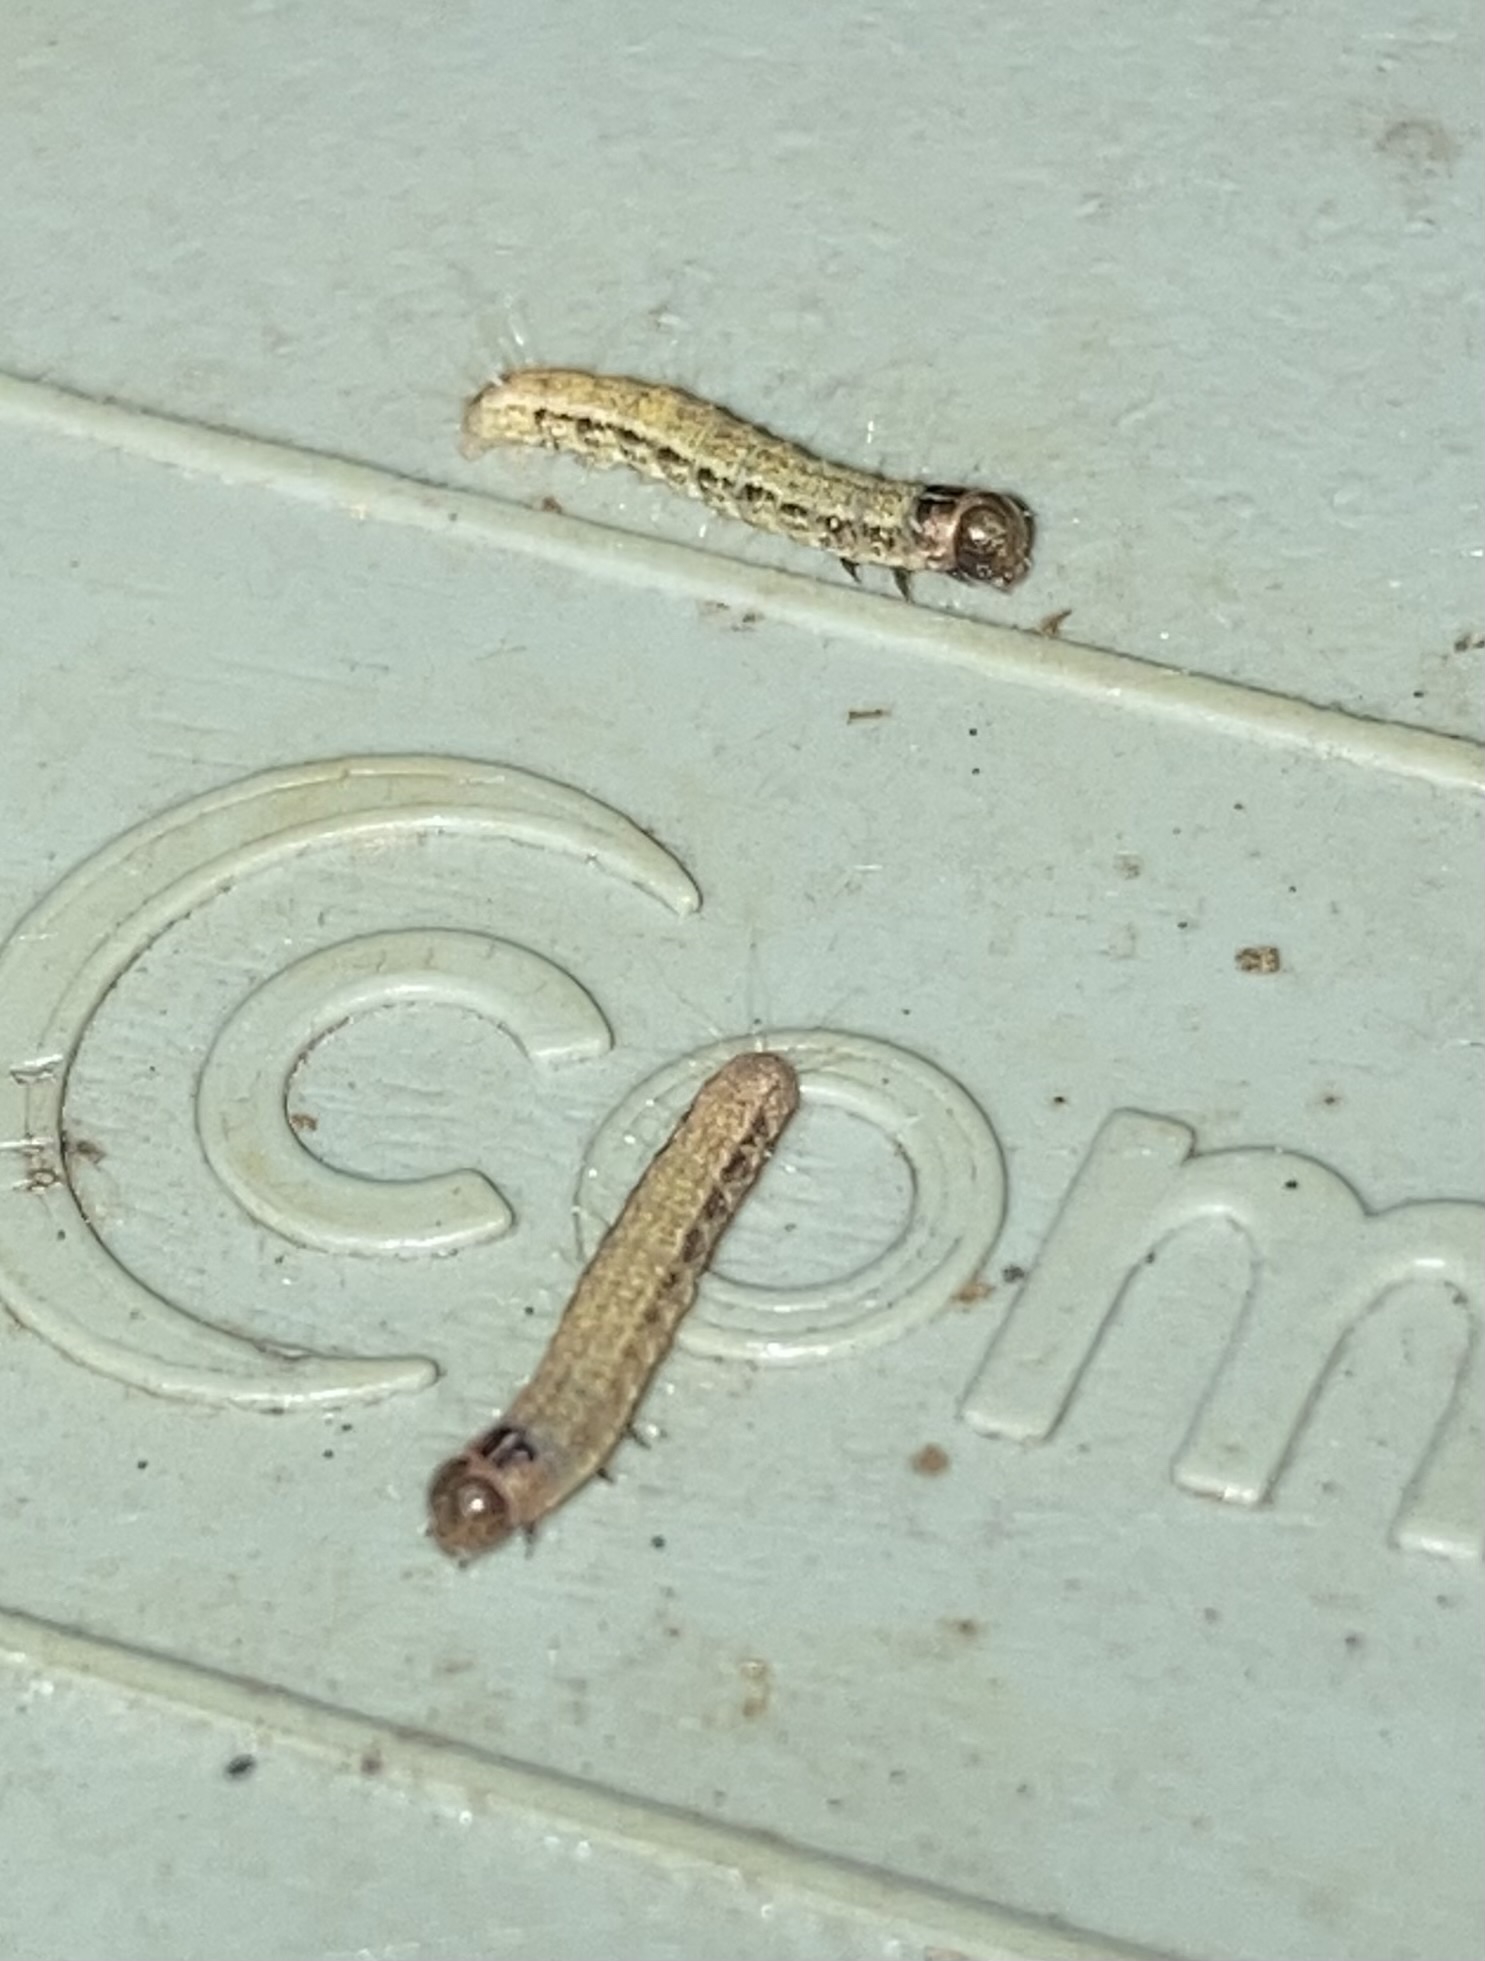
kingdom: Animalia
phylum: Arthropoda
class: Insecta
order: Lepidoptera
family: Nolidae
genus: Garella
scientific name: Garella nilotica
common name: Black-olive caterpillar moth
